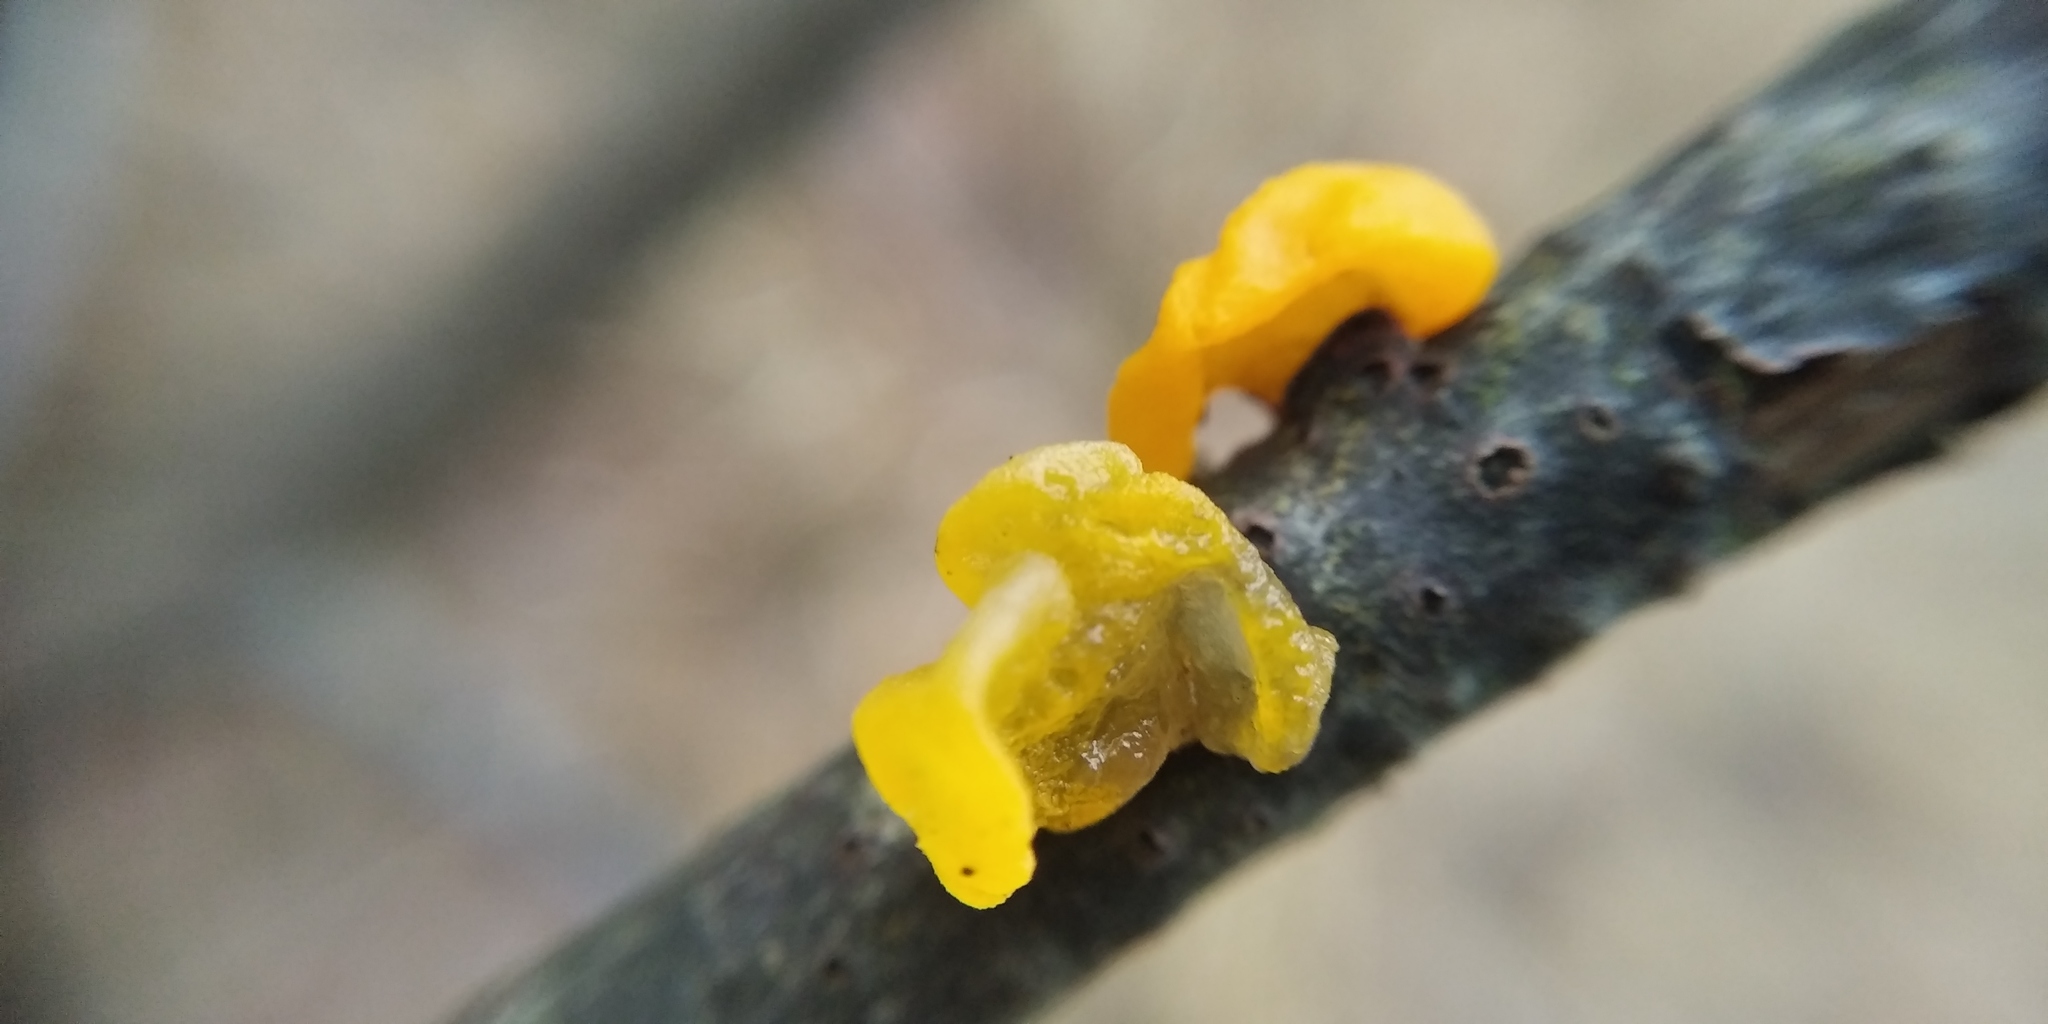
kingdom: Fungi
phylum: Basidiomycota
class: Tremellomycetes
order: Tremellales
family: Tremellaceae
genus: Tremella
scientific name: Tremella mesenterica
